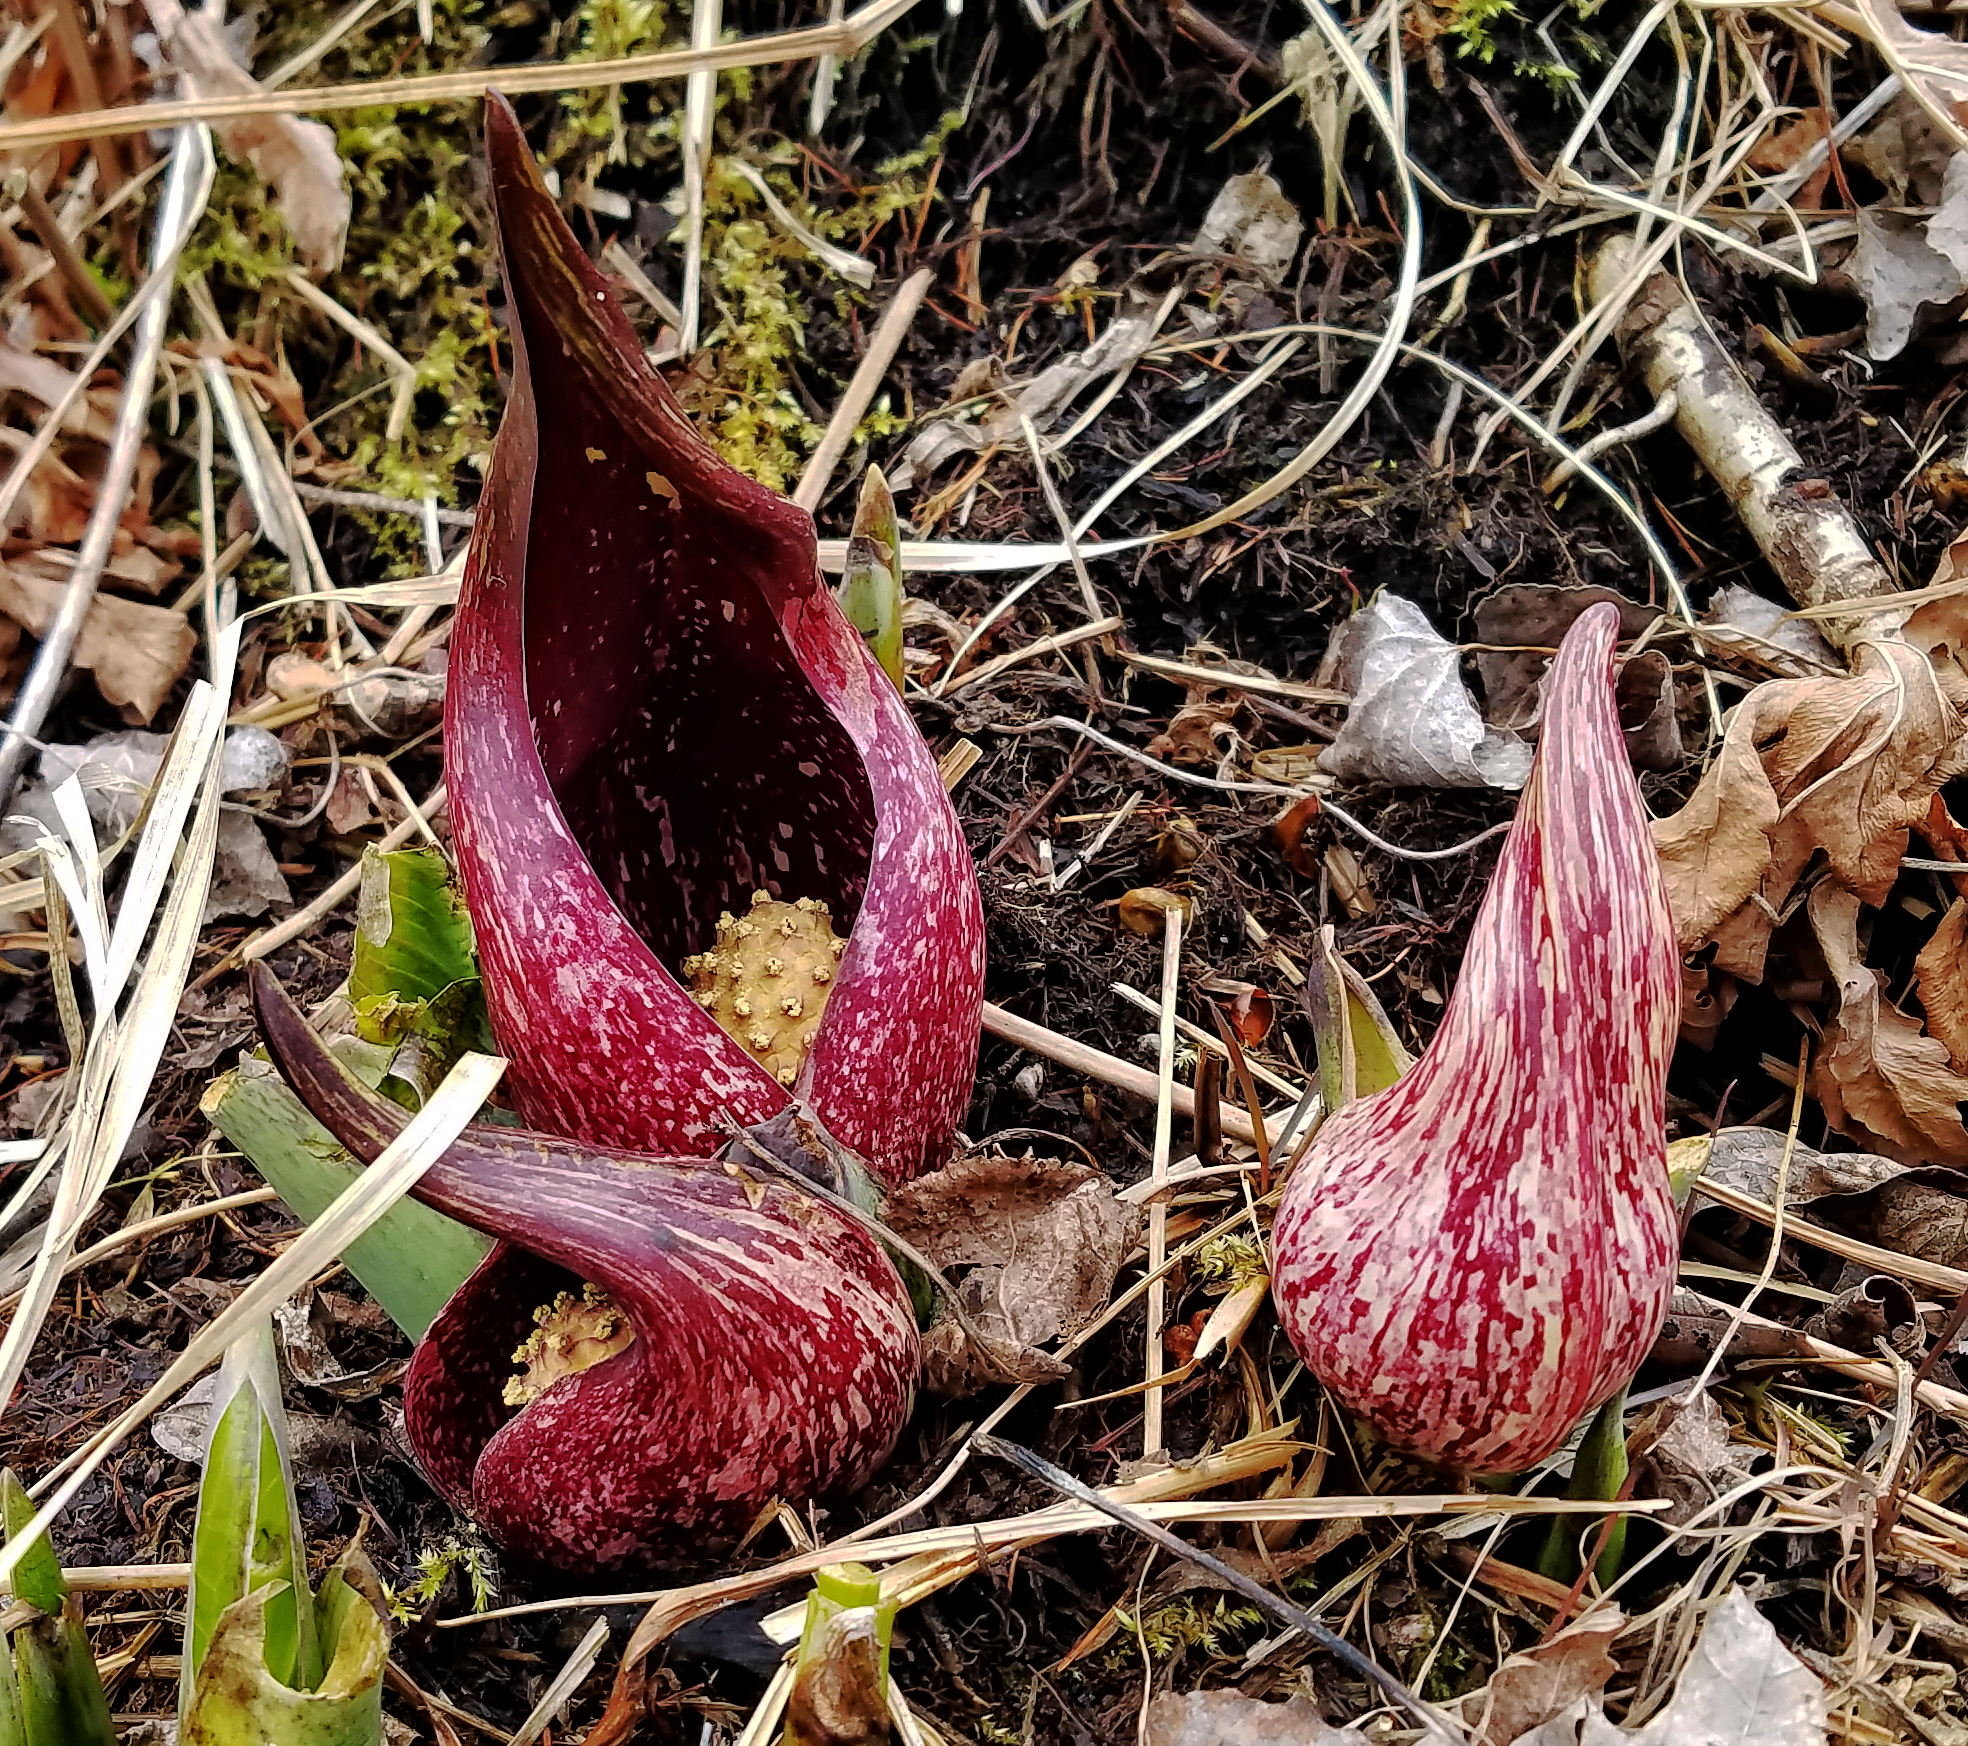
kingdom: Plantae
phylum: Tracheophyta
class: Liliopsida
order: Alismatales
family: Araceae
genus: Symplocarpus
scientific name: Symplocarpus foetidus
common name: Eastern skunk cabbage
